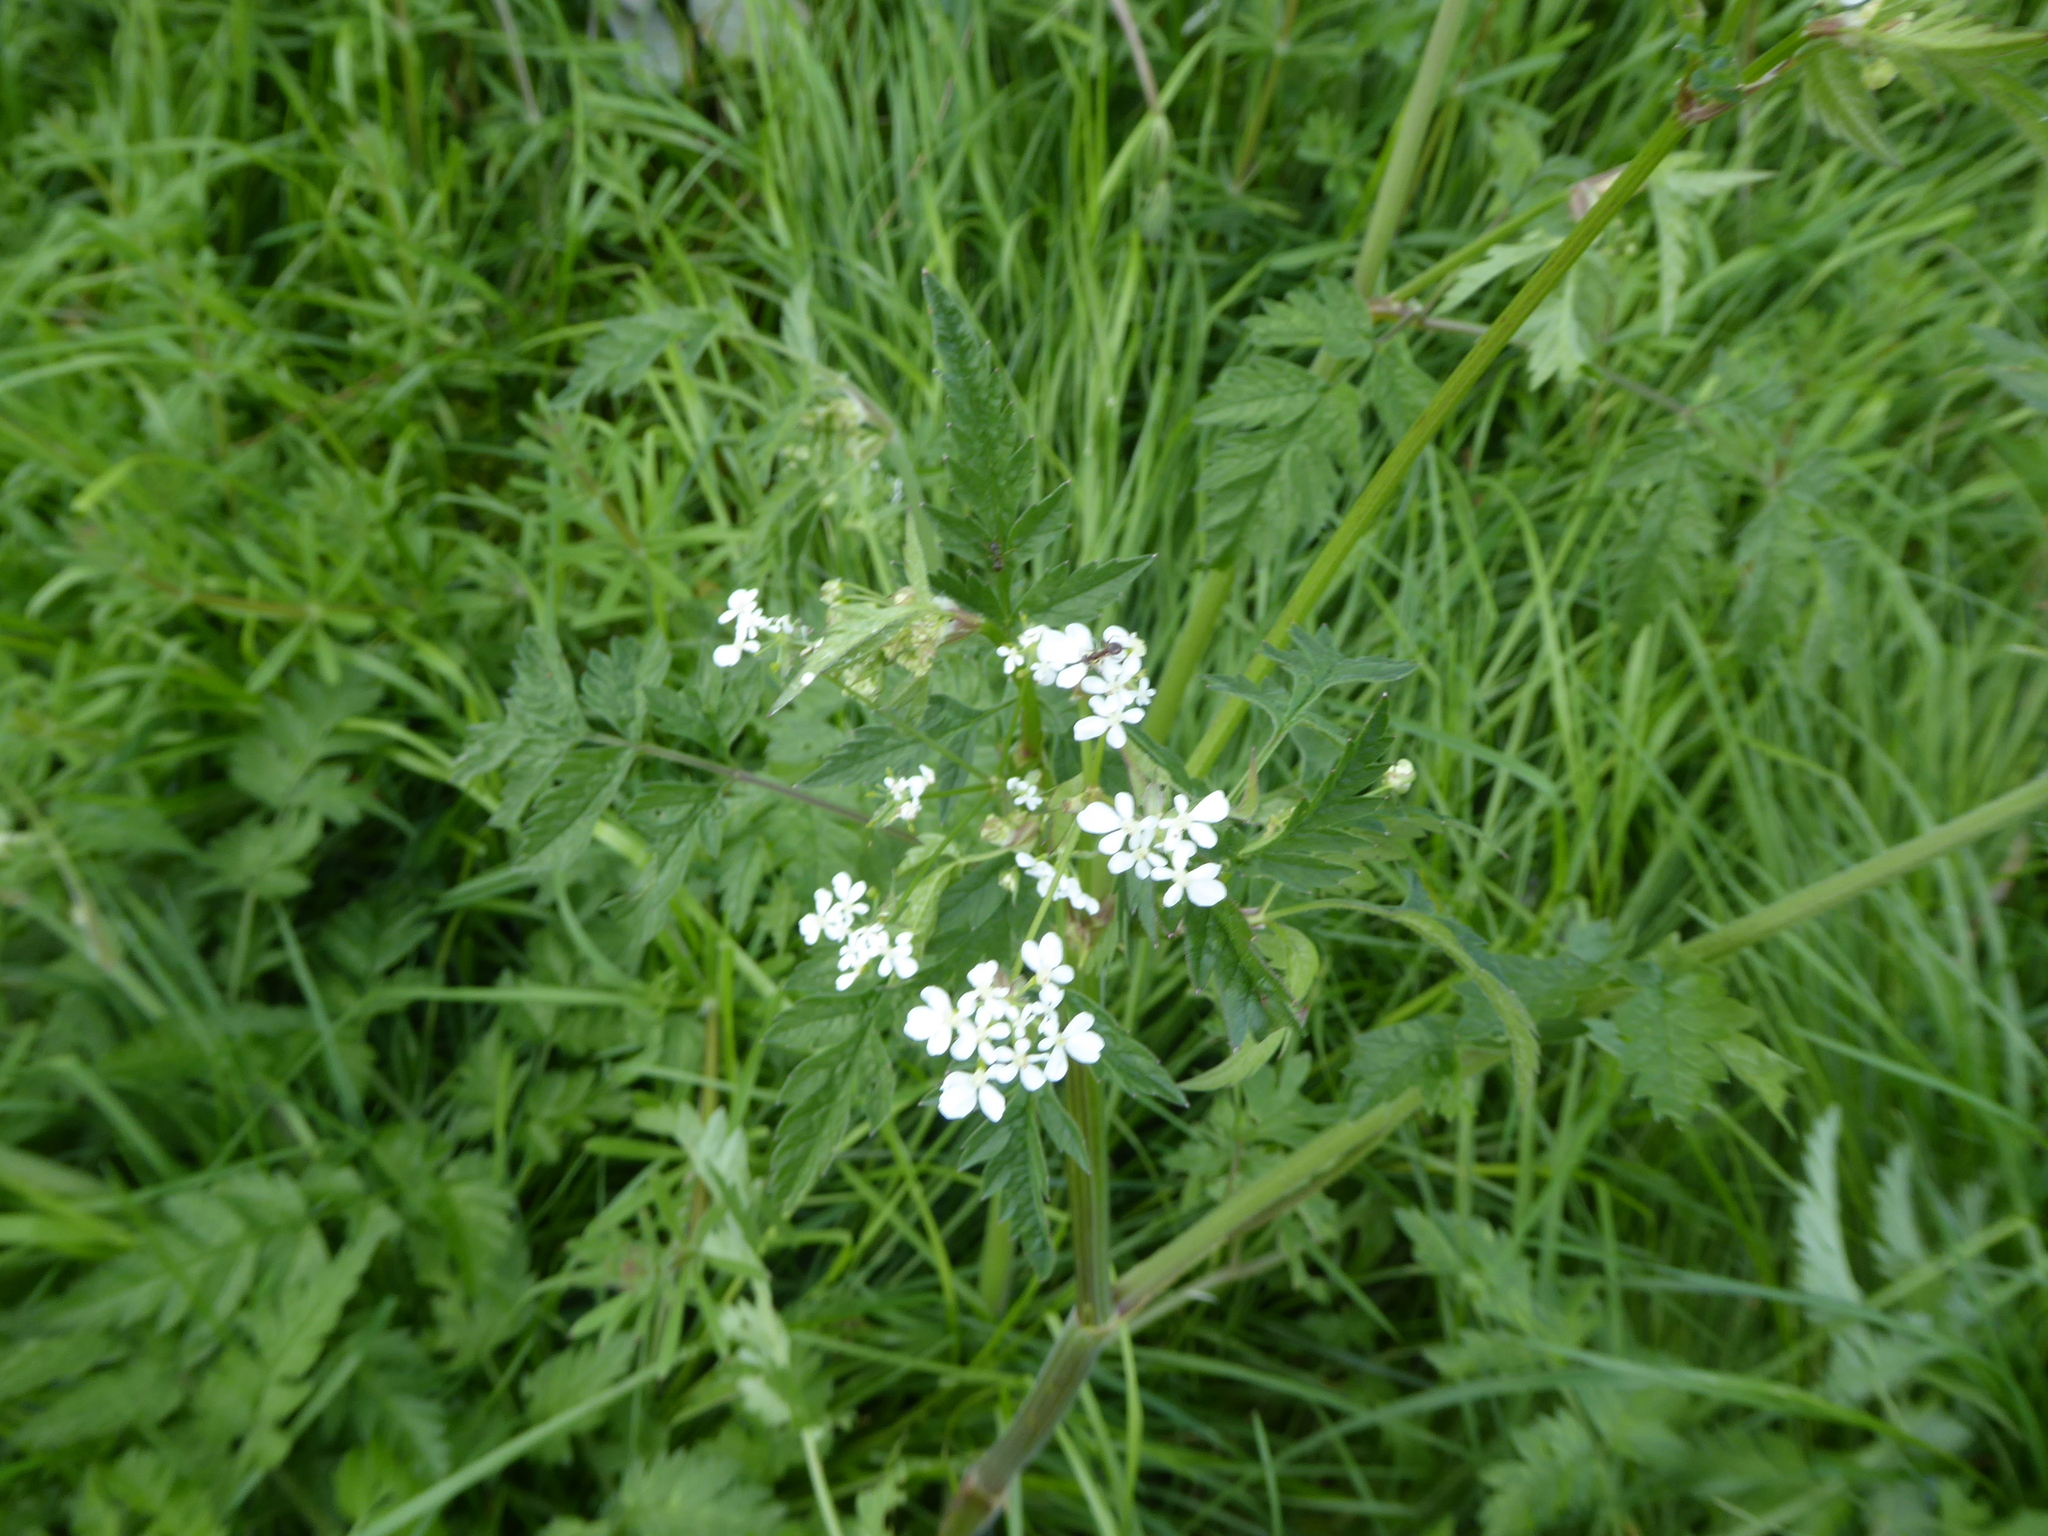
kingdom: Plantae
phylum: Tracheophyta
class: Magnoliopsida
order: Apiales
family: Apiaceae
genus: Anthriscus
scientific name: Anthriscus sylvestris
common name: Cow parsley
